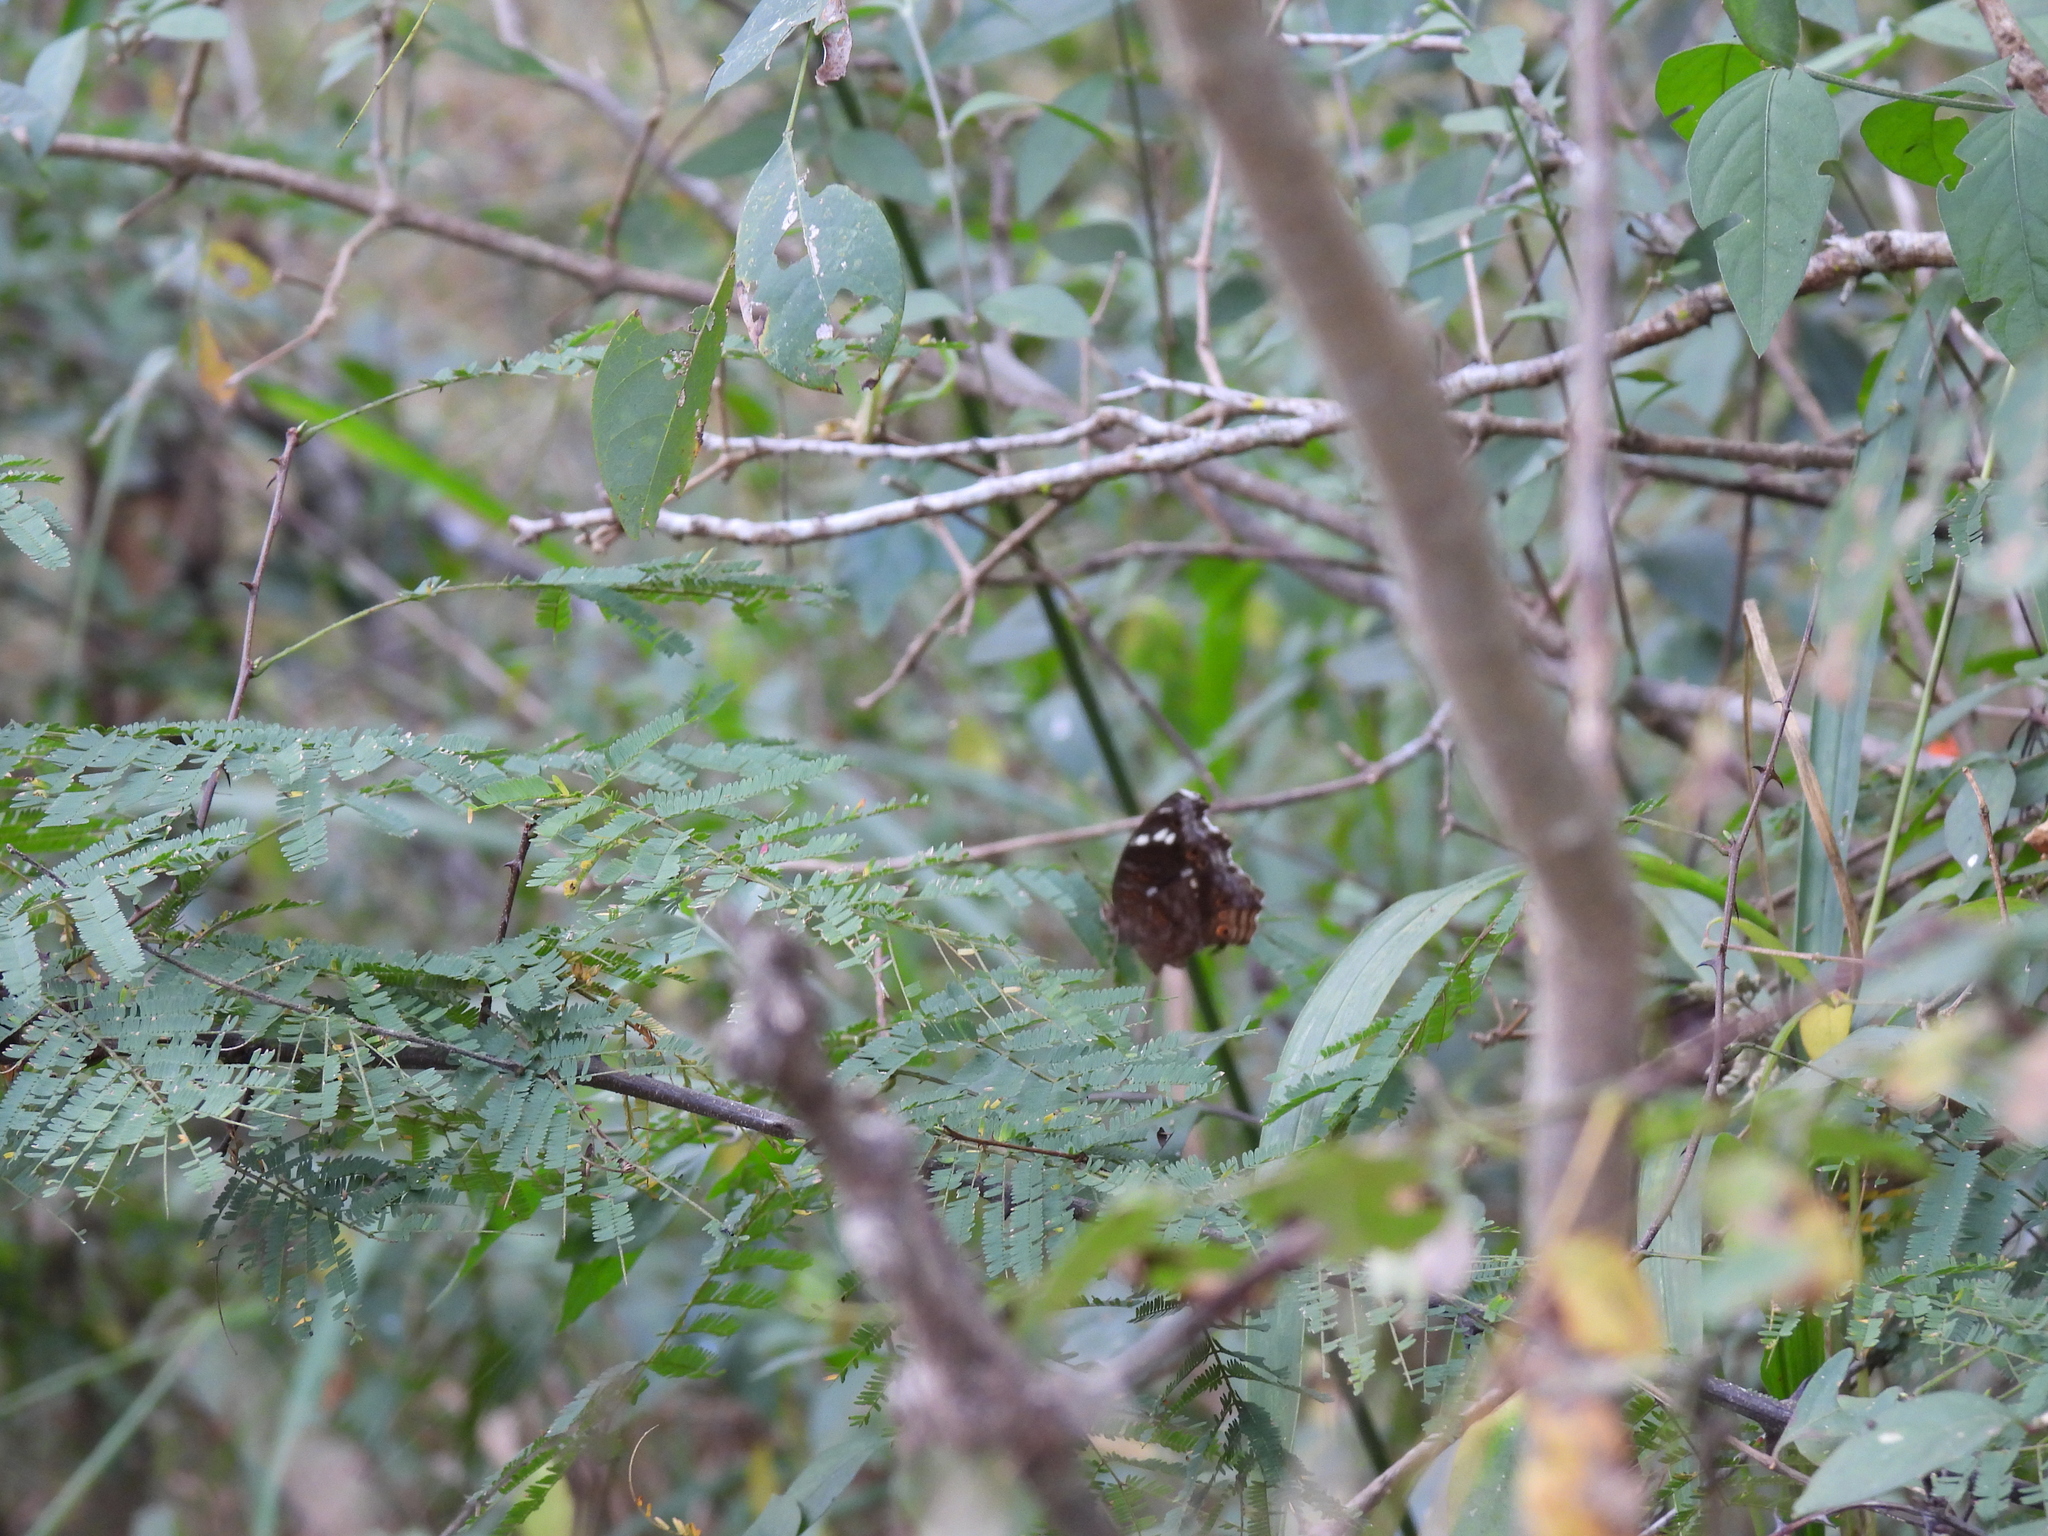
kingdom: Animalia
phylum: Arthropoda
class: Insecta
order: Lepidoptera
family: Nymphalidae
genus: Junonia
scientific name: Junonia natalica
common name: Brown pansy
